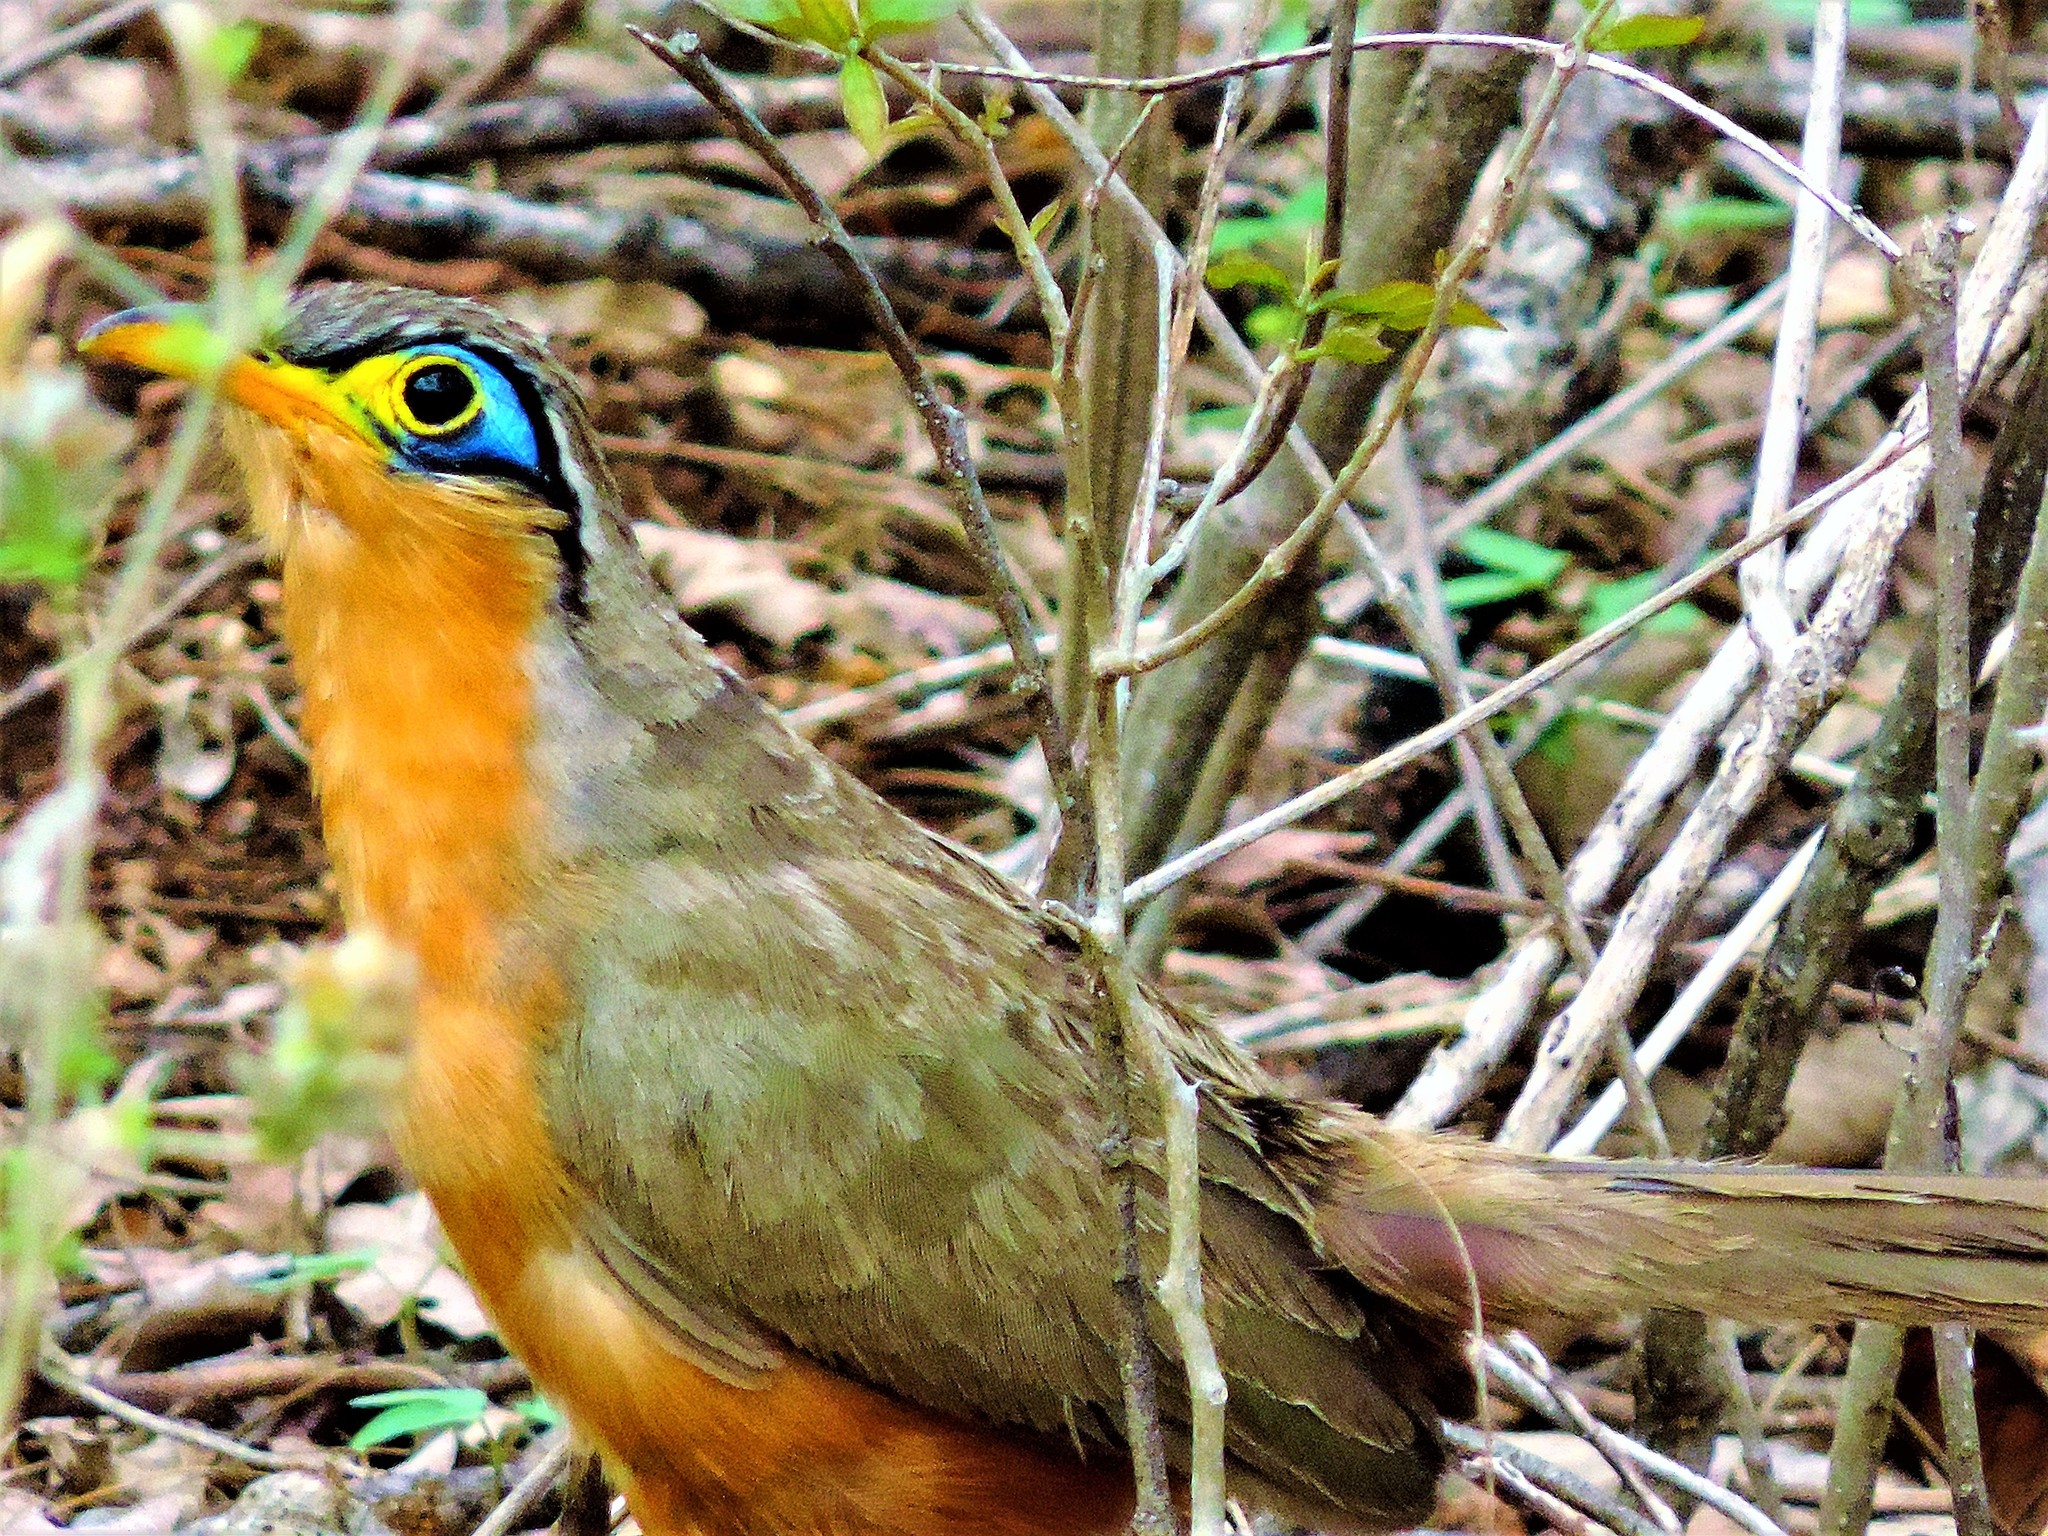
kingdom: Animalia
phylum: Chordata
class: Aves
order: Cuculiformes
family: Cuculidae
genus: Morococcyx
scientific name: Morococcyx erythropygus
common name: Lesser ground-cuckoo
